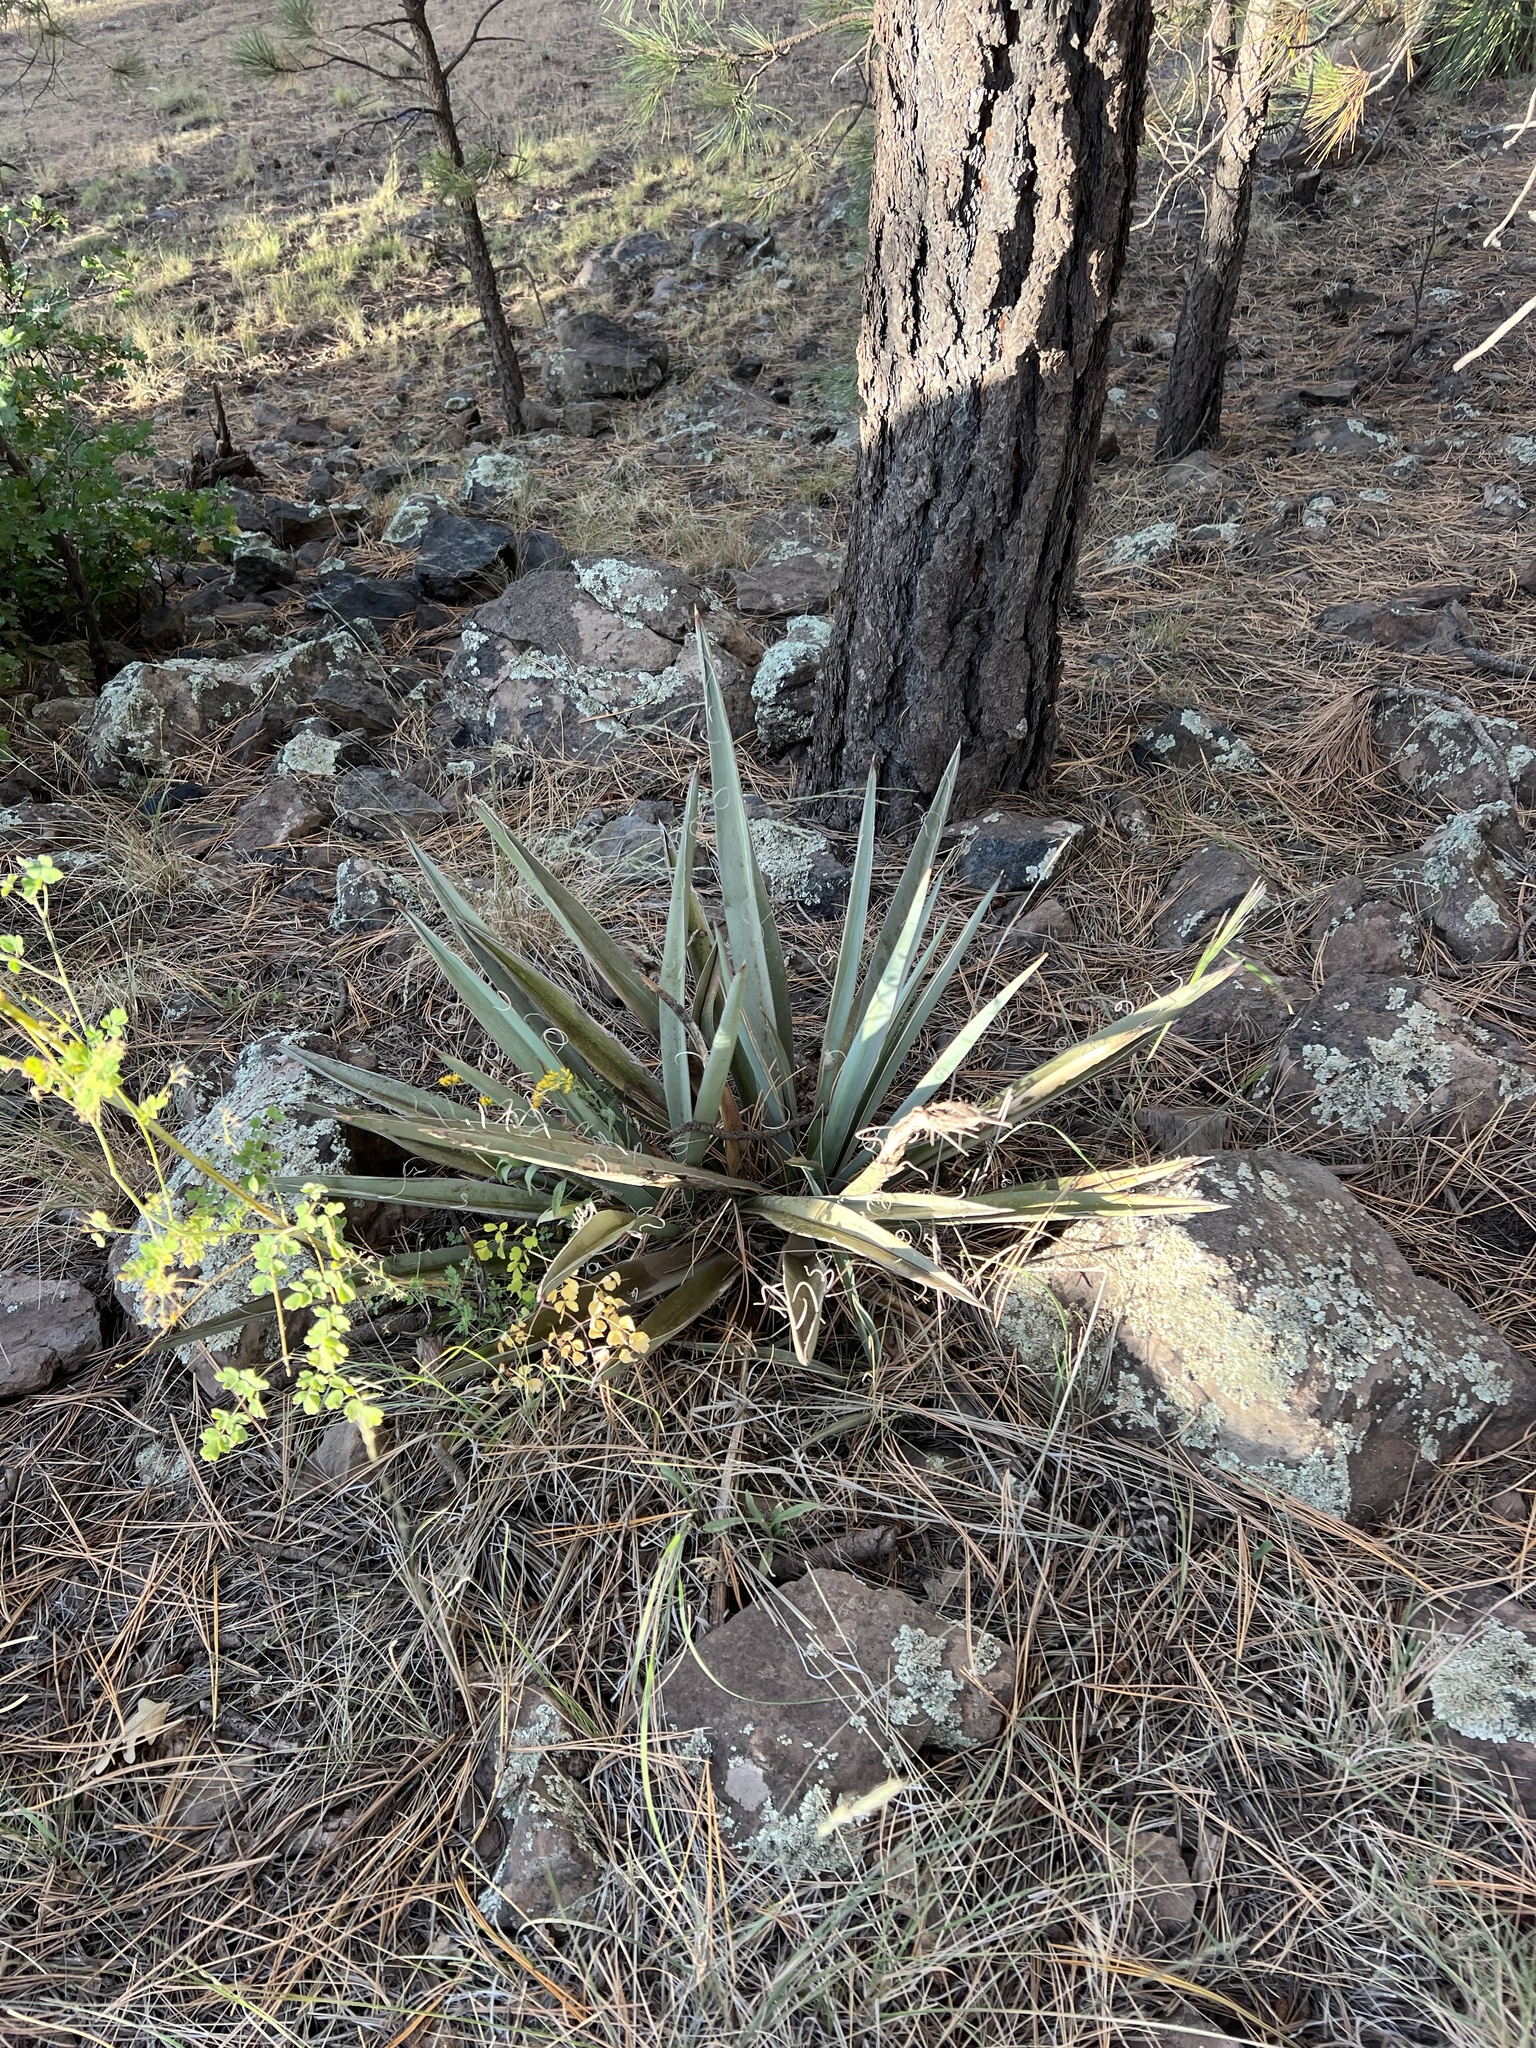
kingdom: Plantae
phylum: Tracheophyta
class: Liliopsida
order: Asparagales
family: Asparagaceae
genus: Yucca
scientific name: Yucca baccata
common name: Banana yucca
